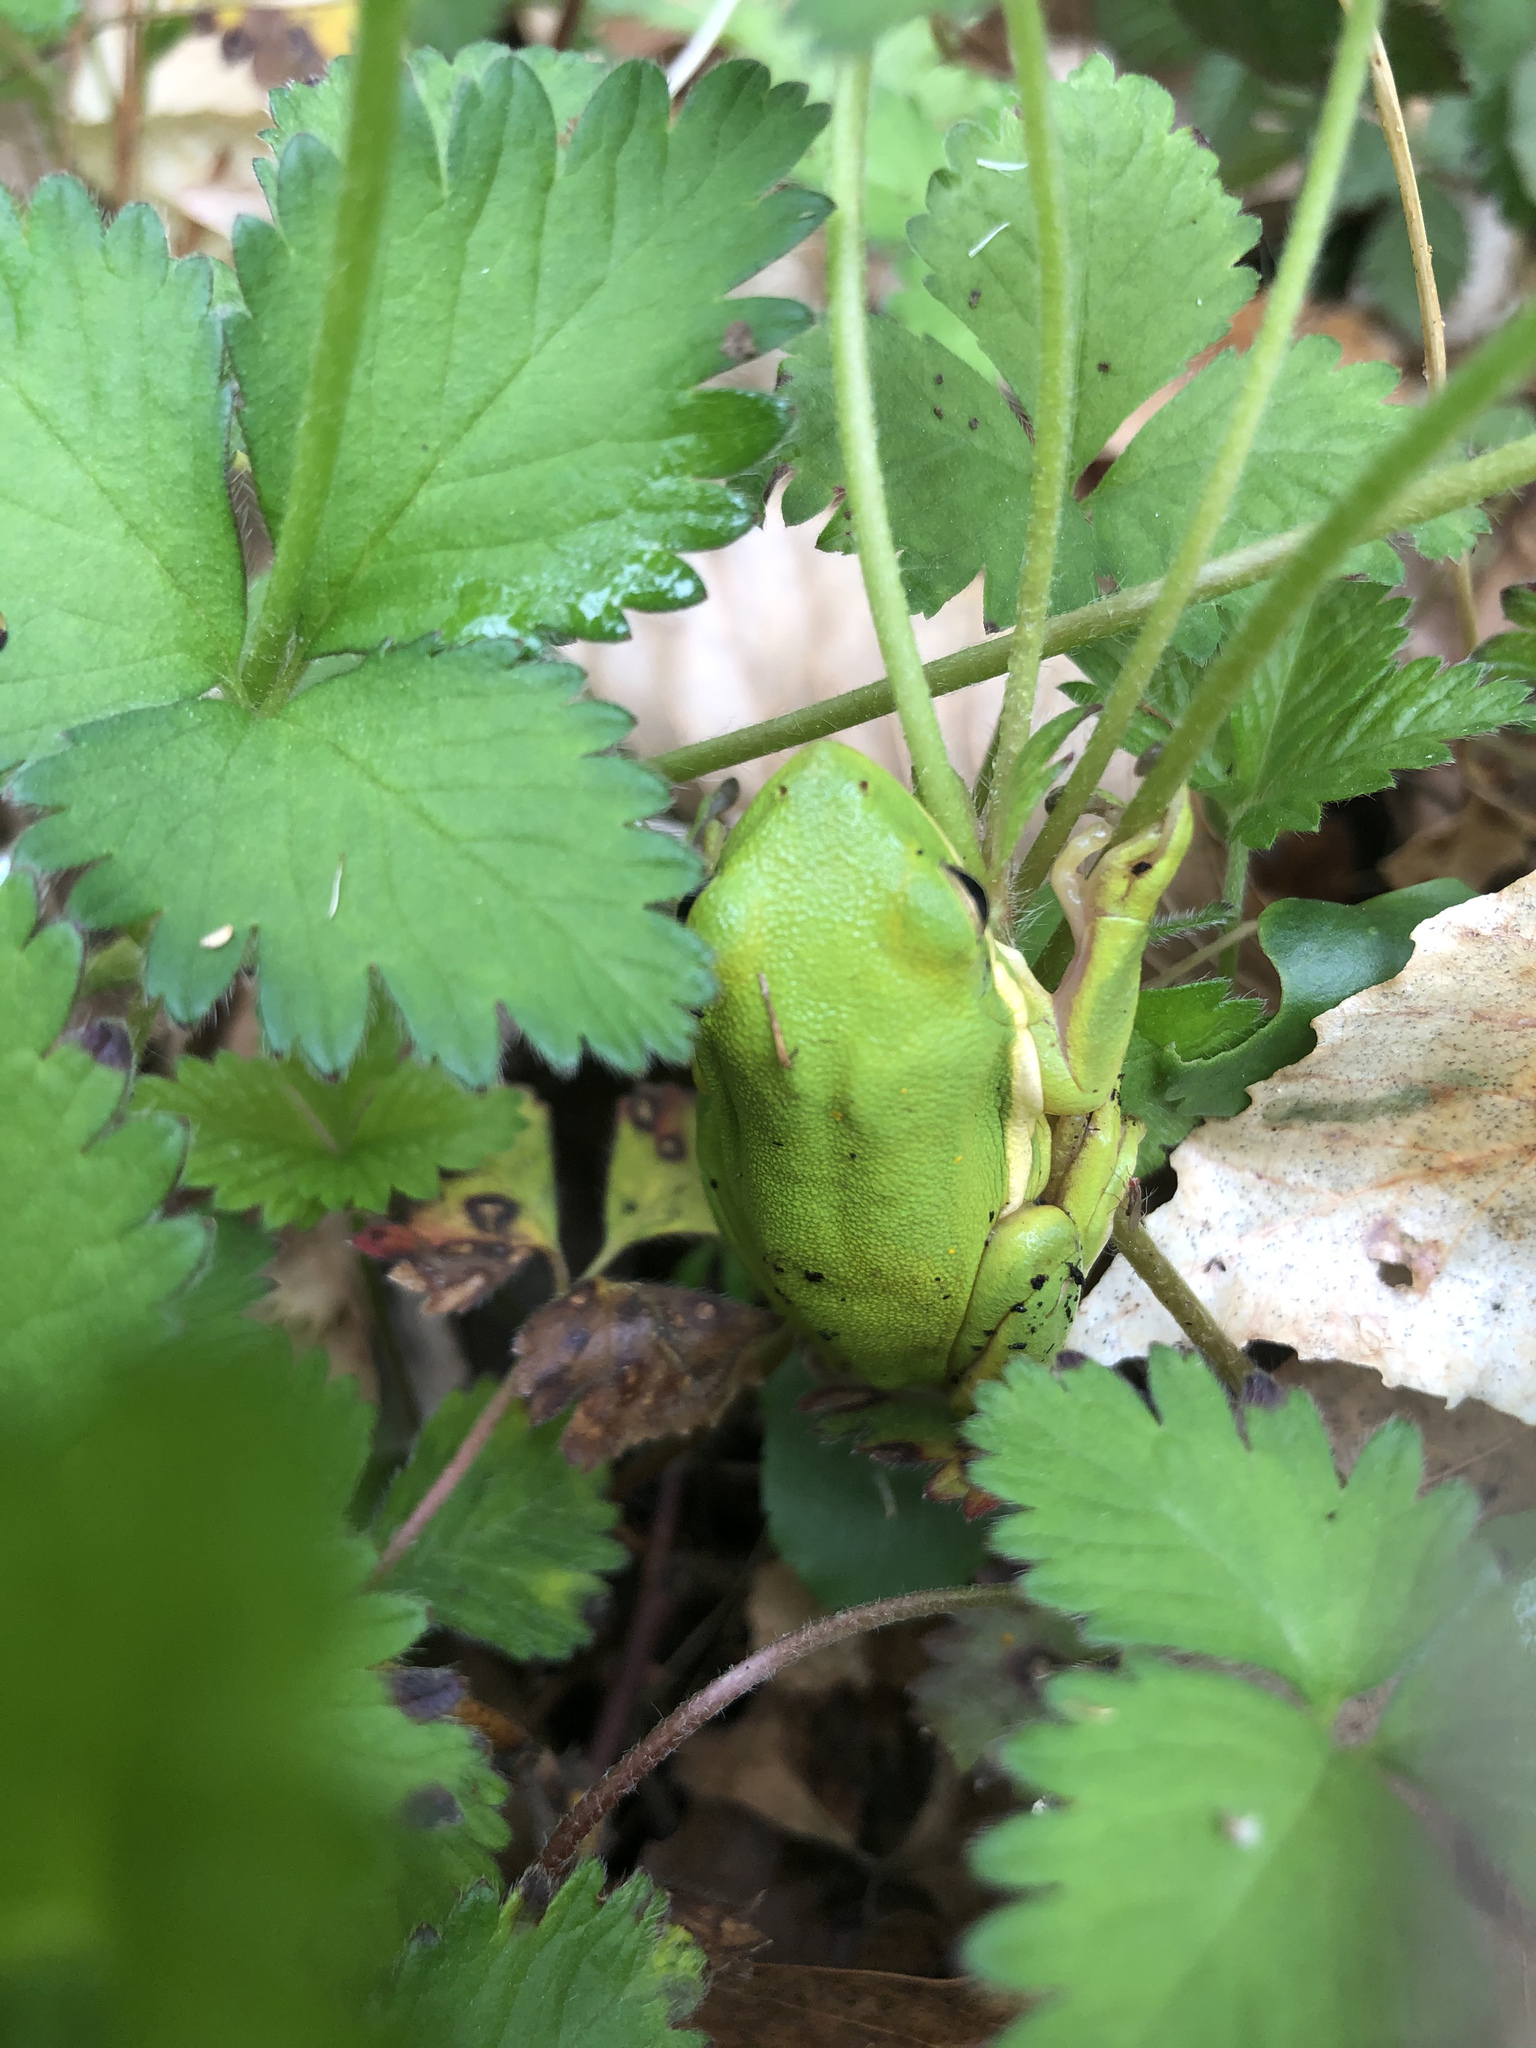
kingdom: Animalia
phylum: Chordata
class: Amphibia
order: Anura
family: Hylidae
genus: Dryophytes
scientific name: Dryophytes cinereus
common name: Green treefrog
